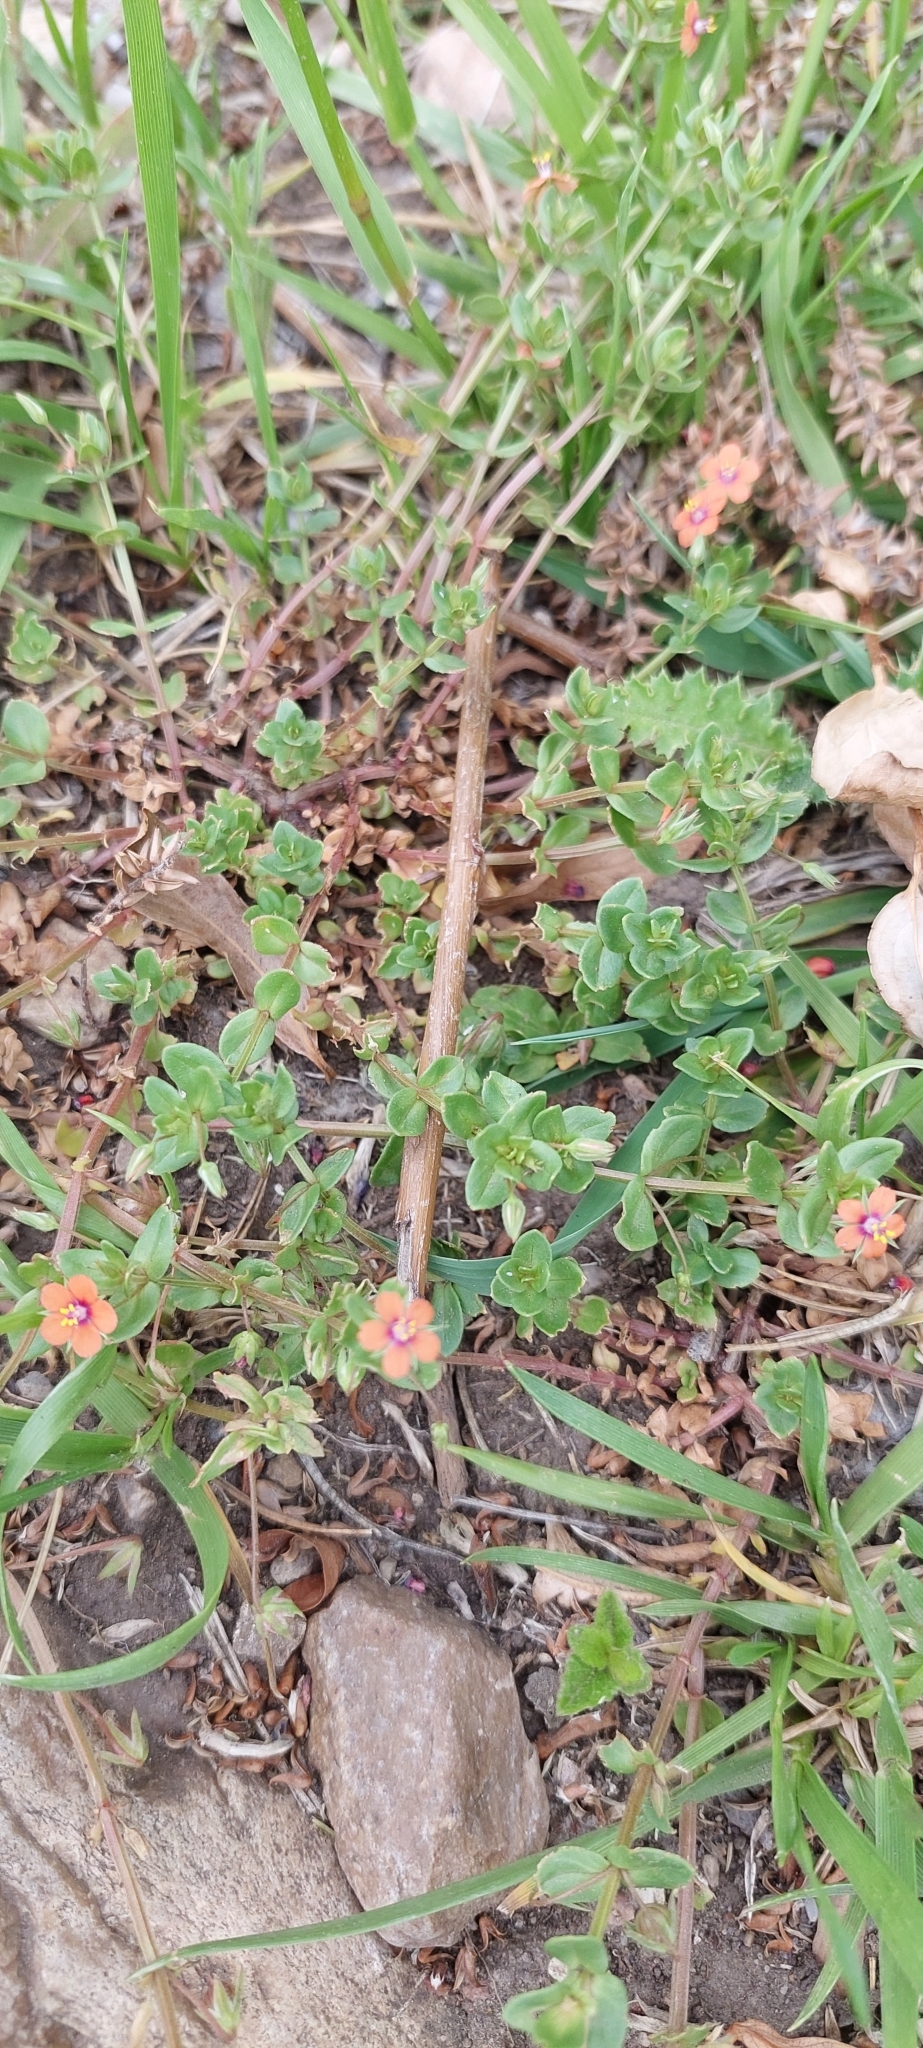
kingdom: Plantae
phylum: Tracheophyta
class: Magnoliopsida
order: Ericales
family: Primulaceae
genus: Lysimachia
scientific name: Lysimachia arvensis
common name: Scarlet pimpernel
